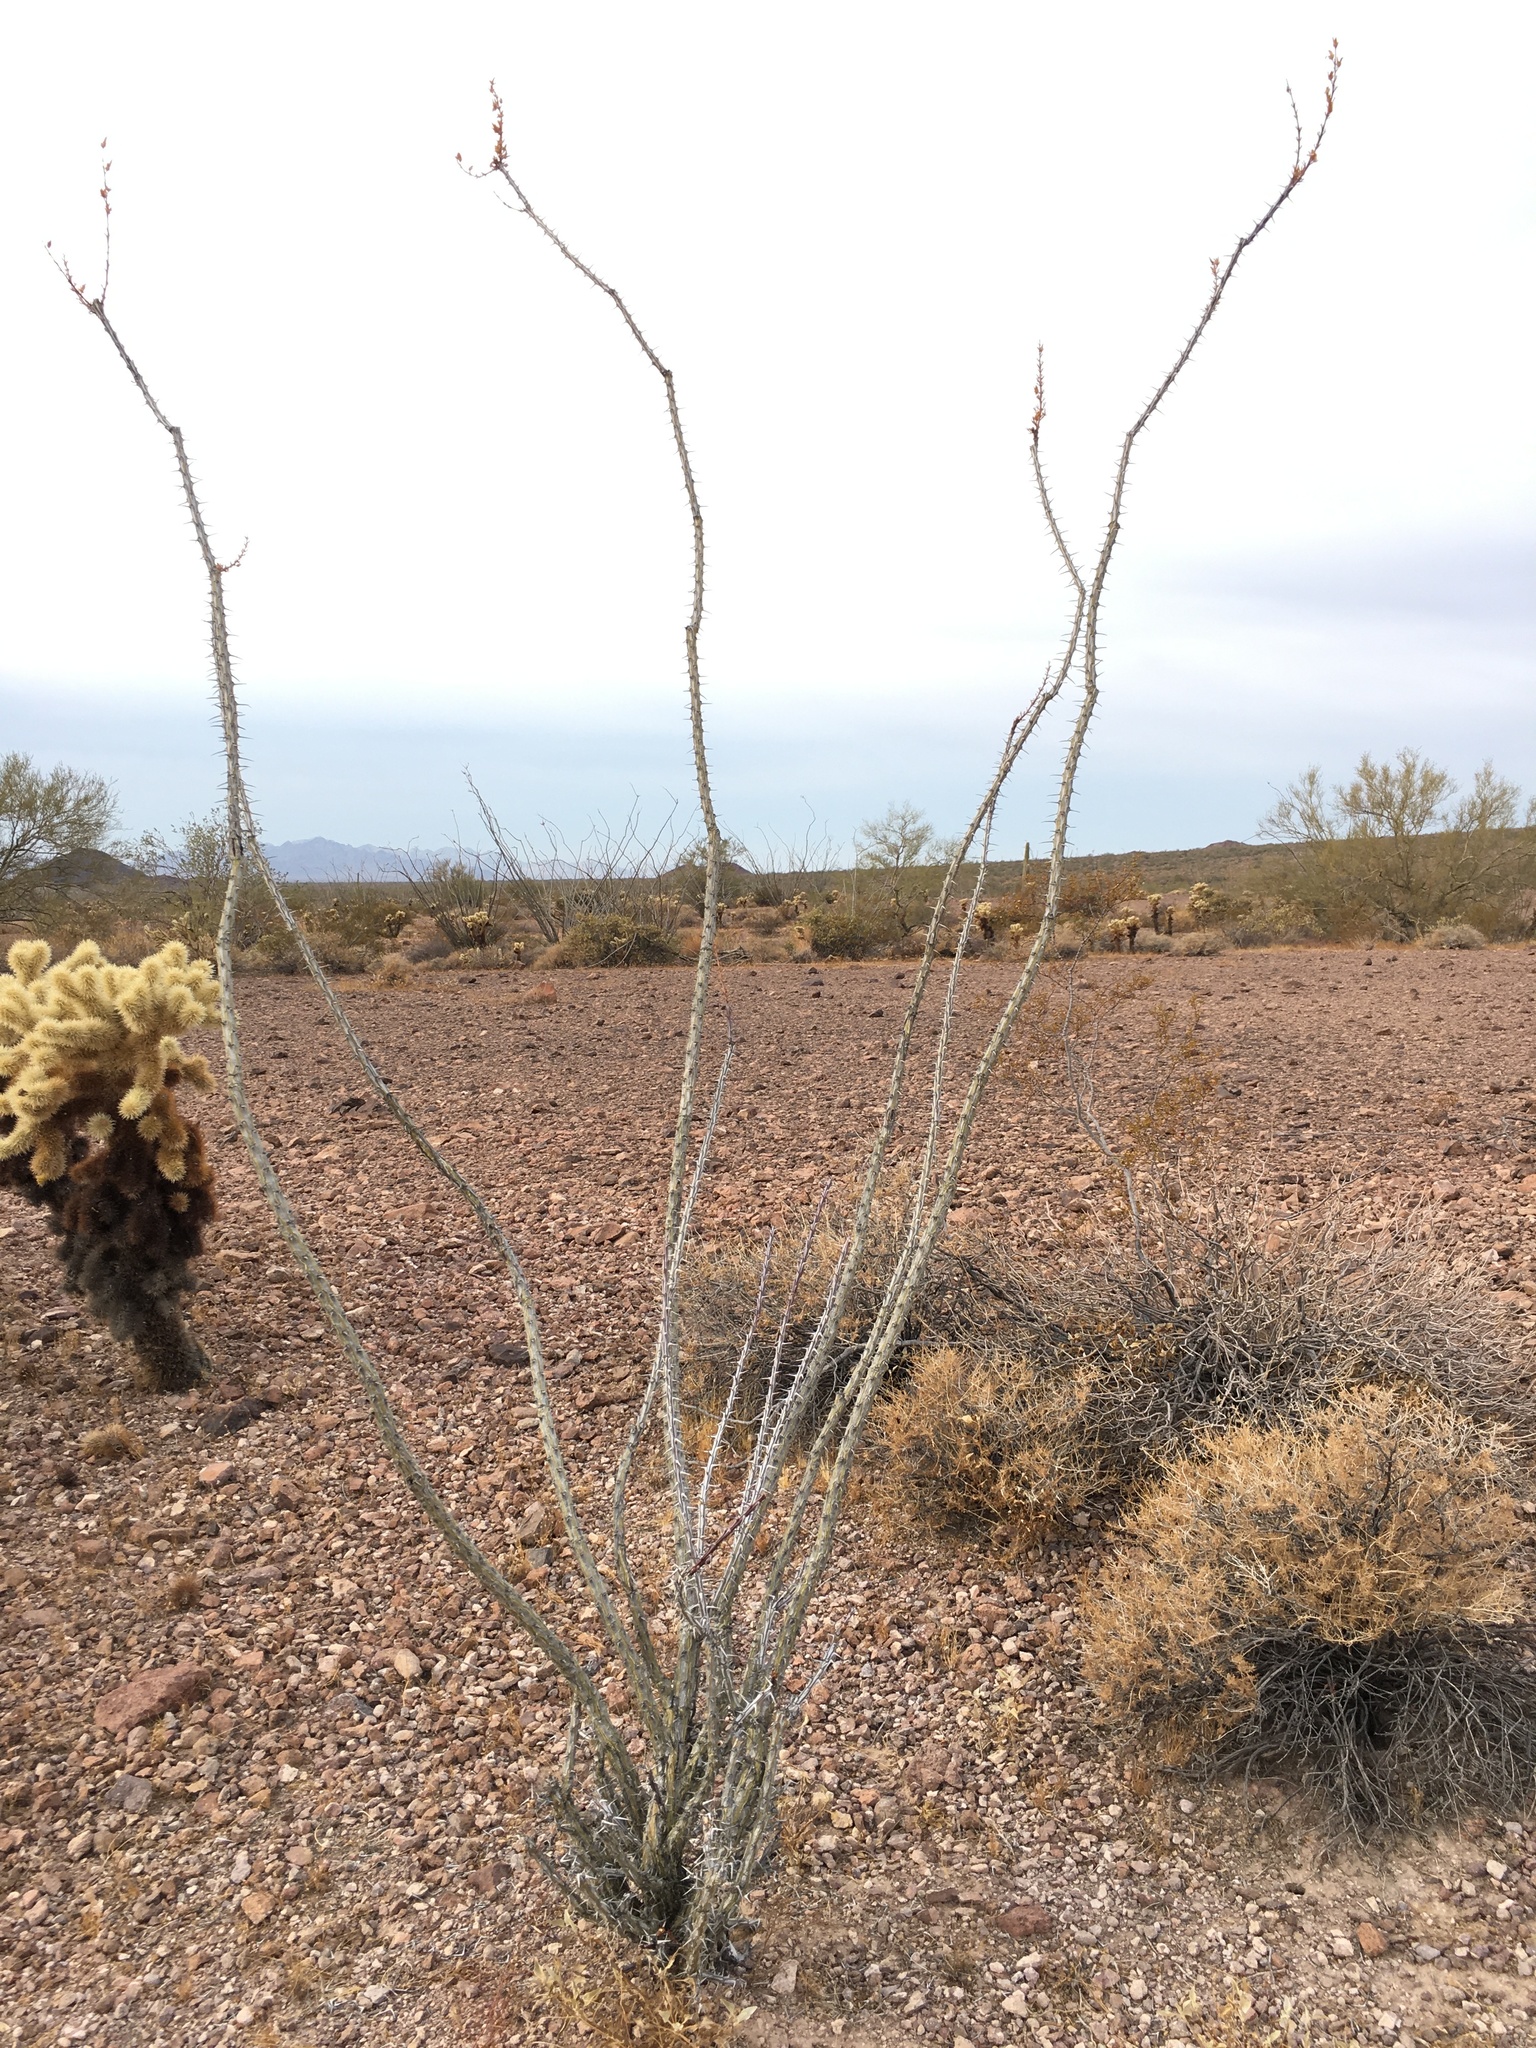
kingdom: Plantae
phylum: Tracheophyta
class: Magnoliopsida
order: Ericales
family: Fouquieriaceae
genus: Fouquieria
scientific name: Fouquieria splendens
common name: Vine-cactus
